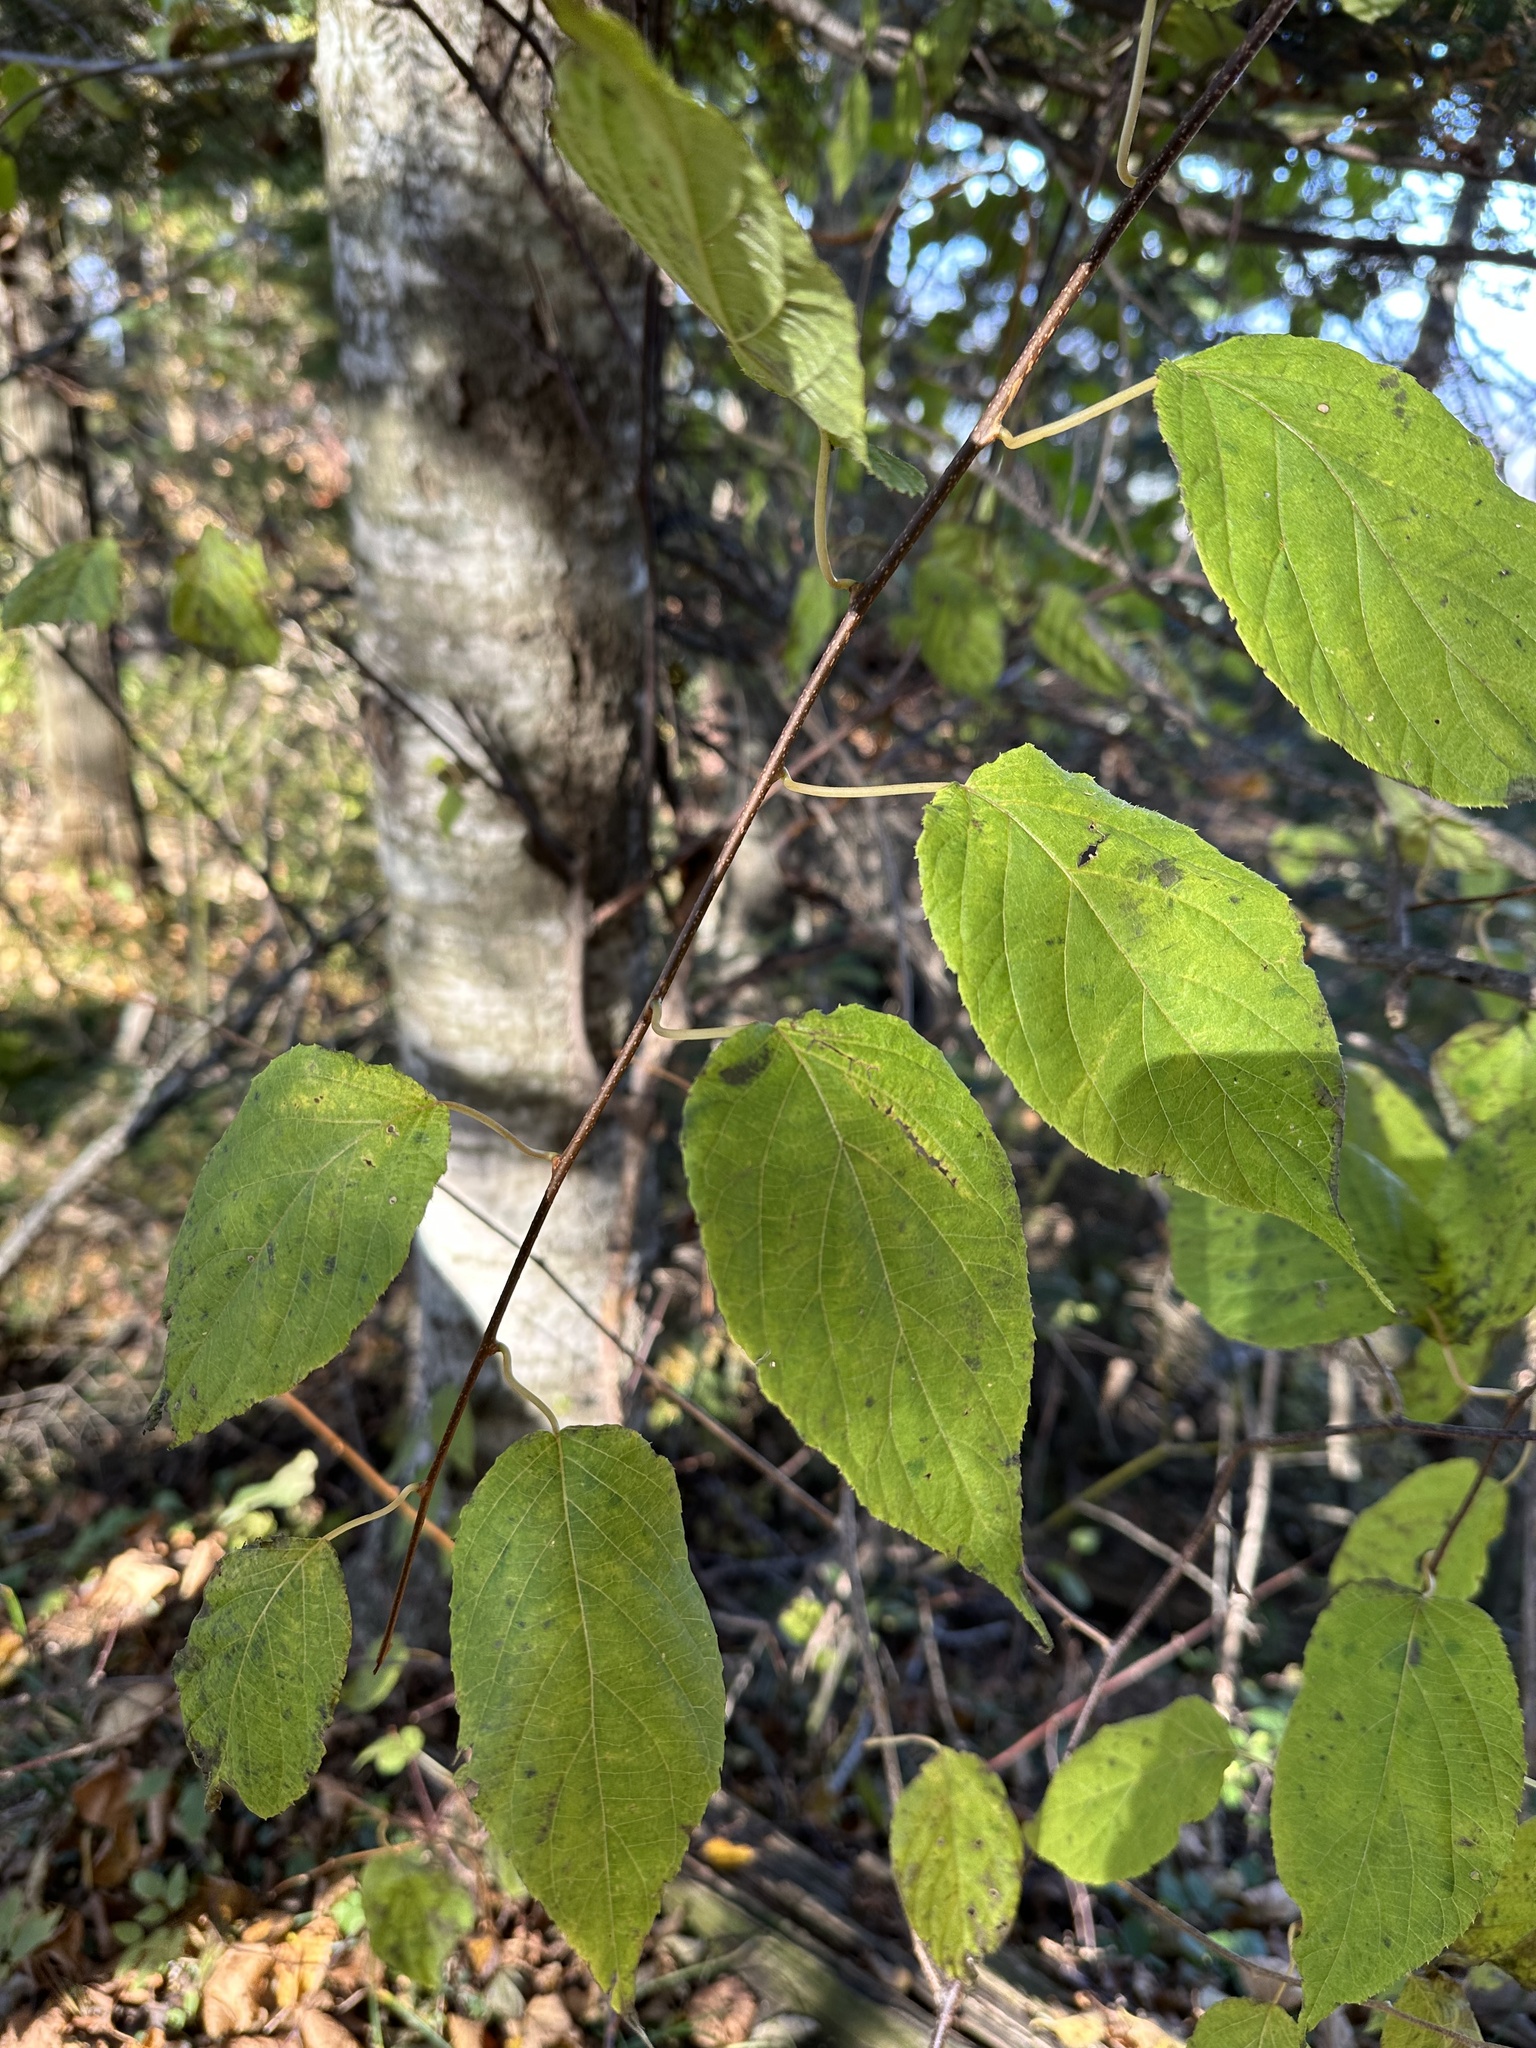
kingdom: Plantae
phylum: Tracheophyta
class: Magnoliopsida
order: Ericales
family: Actinidiaceae
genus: Actinidia
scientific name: Actinidia kolomikta
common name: Arctic beauty kiwi
